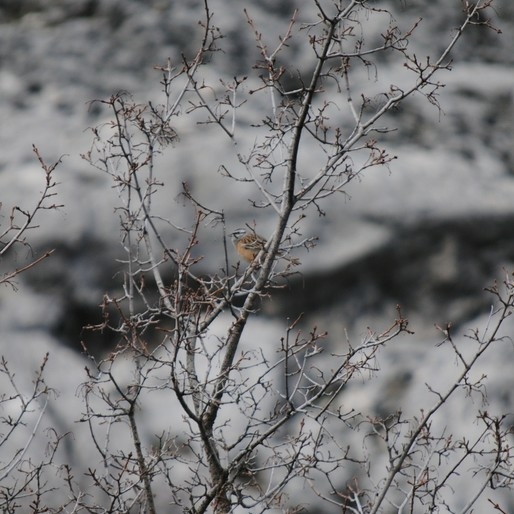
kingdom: Animalia
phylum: Chordata
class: Aves
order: Passeriformes
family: Emberizidae
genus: Emberiza
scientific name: Emberiza cia
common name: Rock bunting
